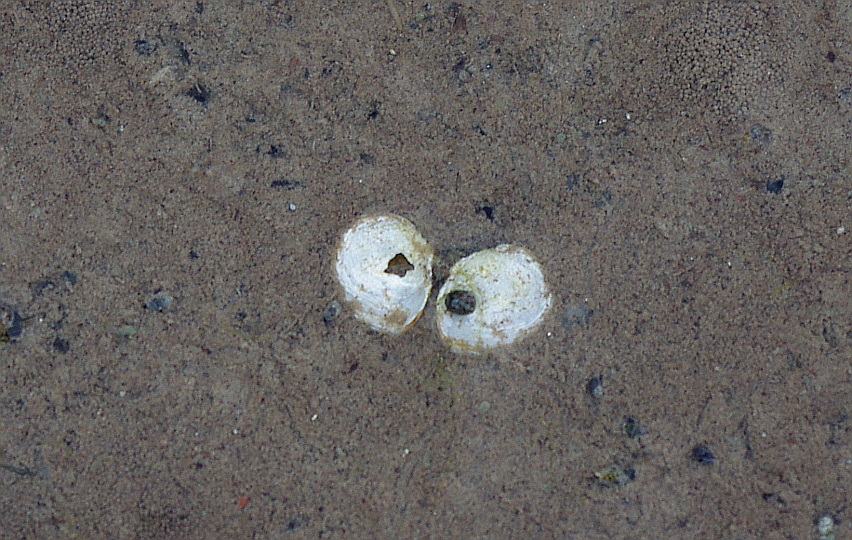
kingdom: Animalia
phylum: Mollusca
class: Bivalvia
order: Cardiida
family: Tellinidae
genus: Macoma
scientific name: Macoma balthica
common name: Baltic tellin
